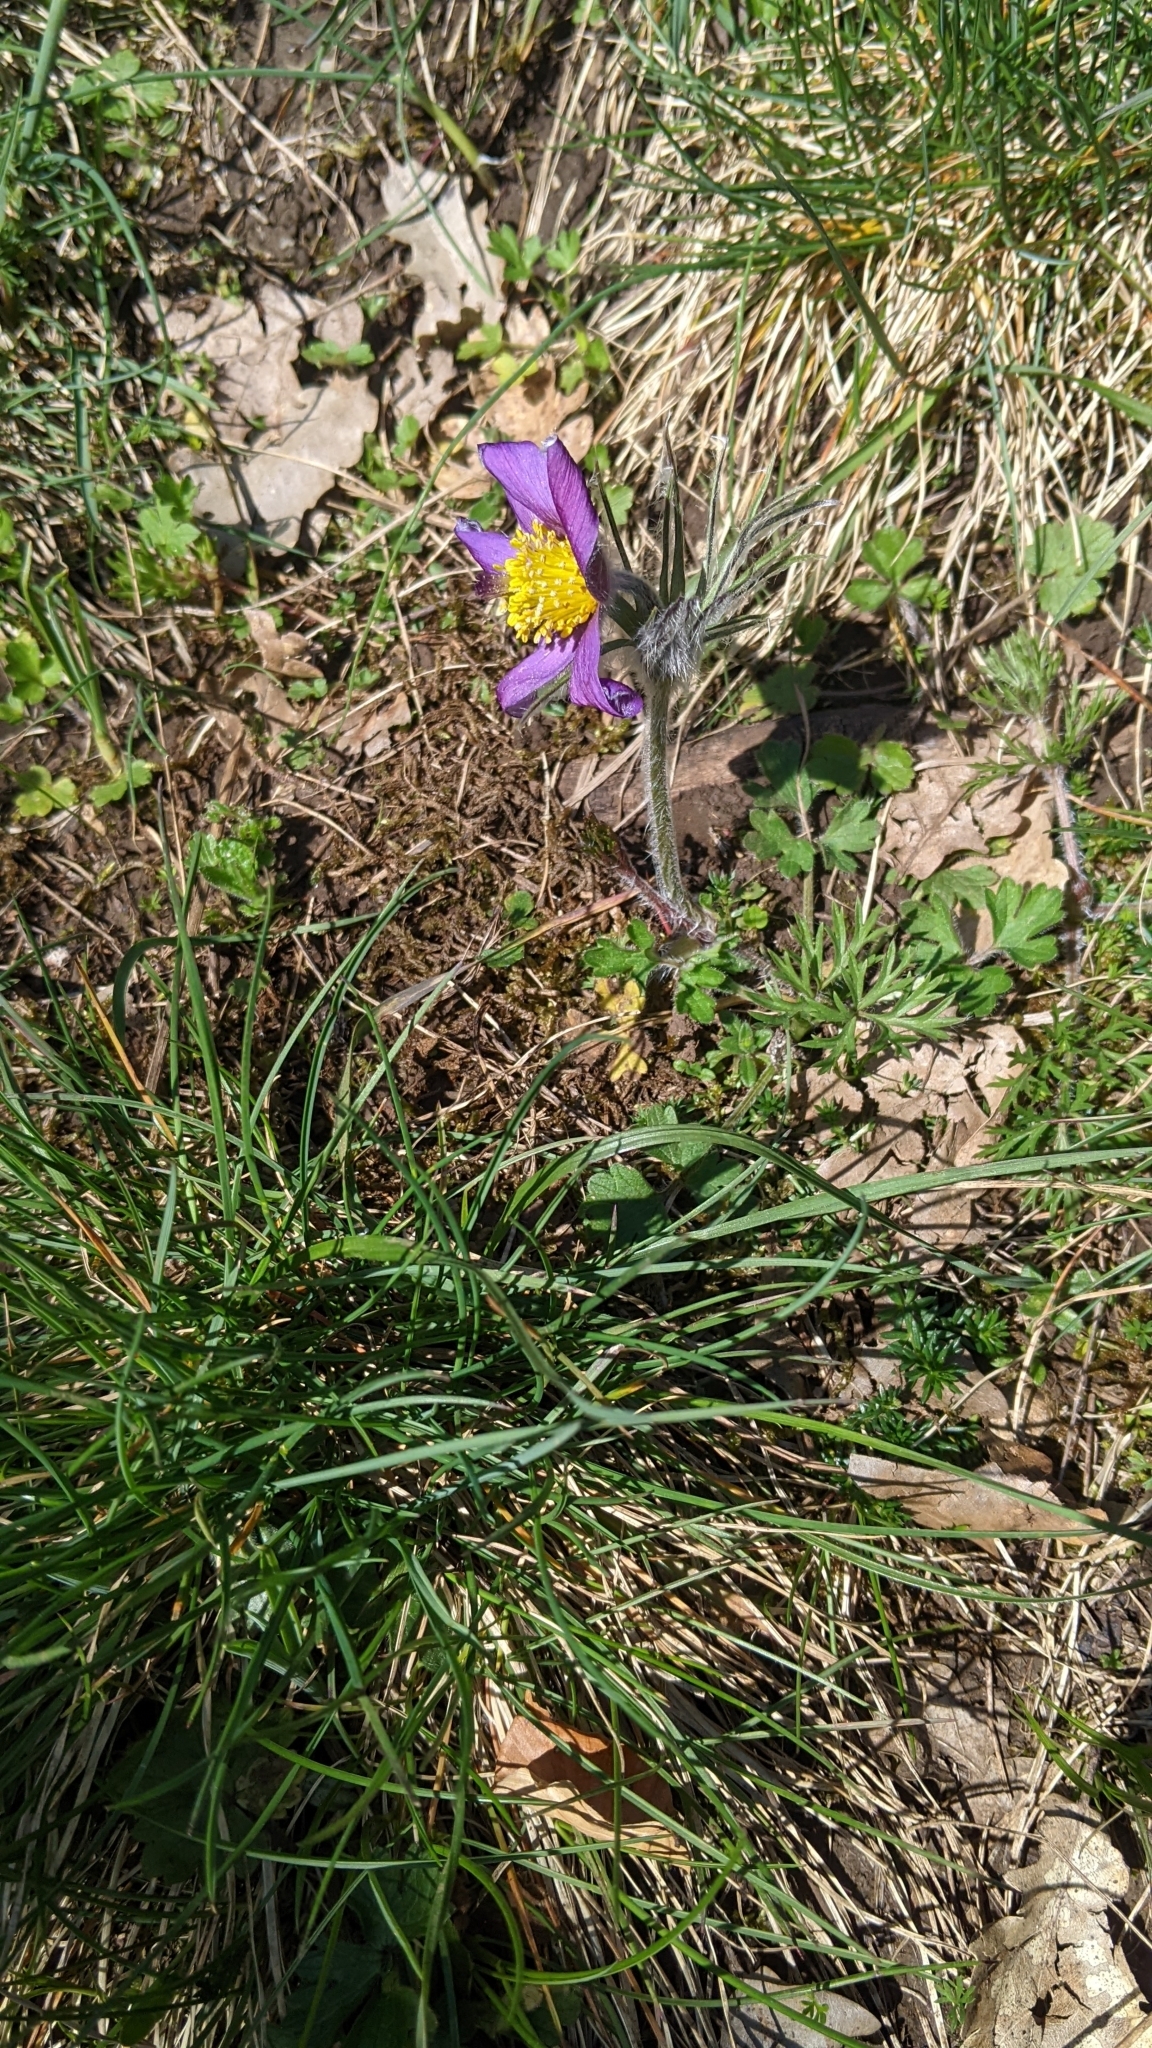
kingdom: Plantae
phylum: Tracheophyta
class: Magnoliopsida
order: Ranunculales
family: Ranunculaceae
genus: Pulsatilla
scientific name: Pulsatilla vulgaris
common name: Pasqueflower
